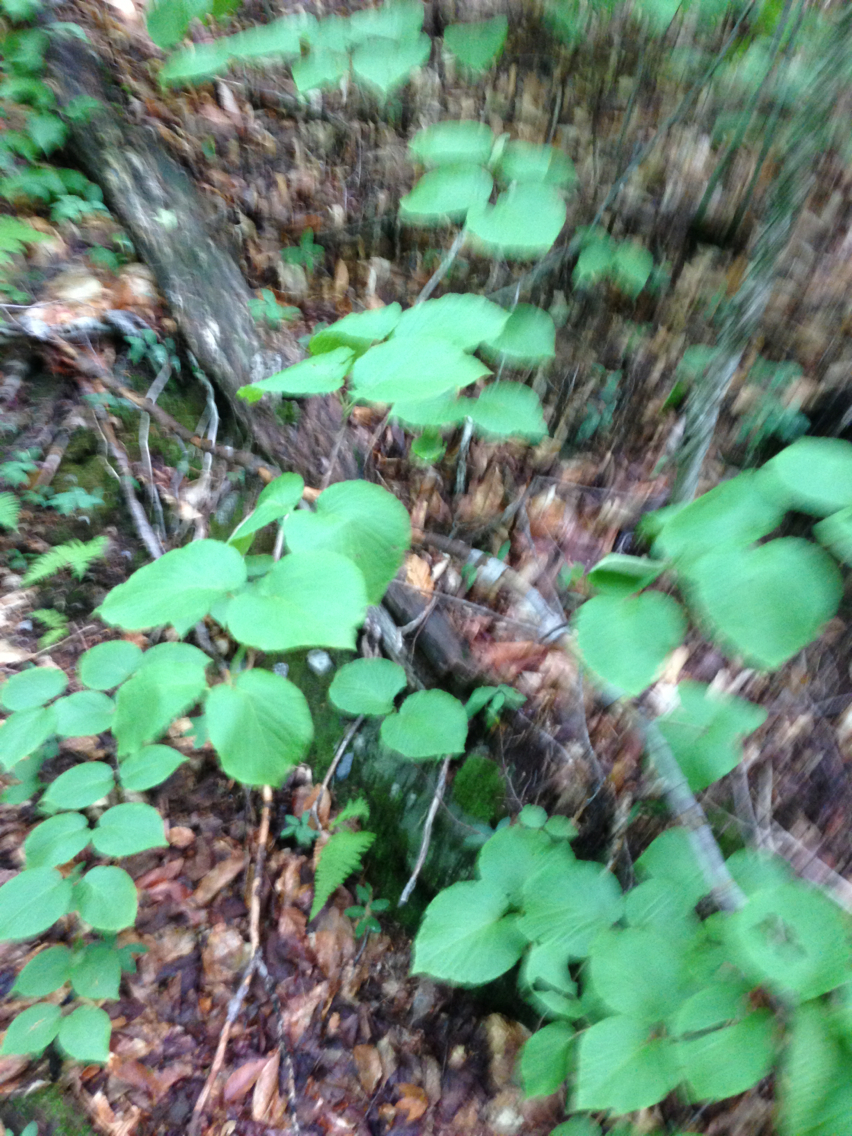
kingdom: Plantae
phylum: Tracheophyta
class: Magnoliopsida
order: Dipsacales
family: Viburnaceae
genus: Viburnum
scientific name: Viburnum lantanoides
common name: Hobblebush
